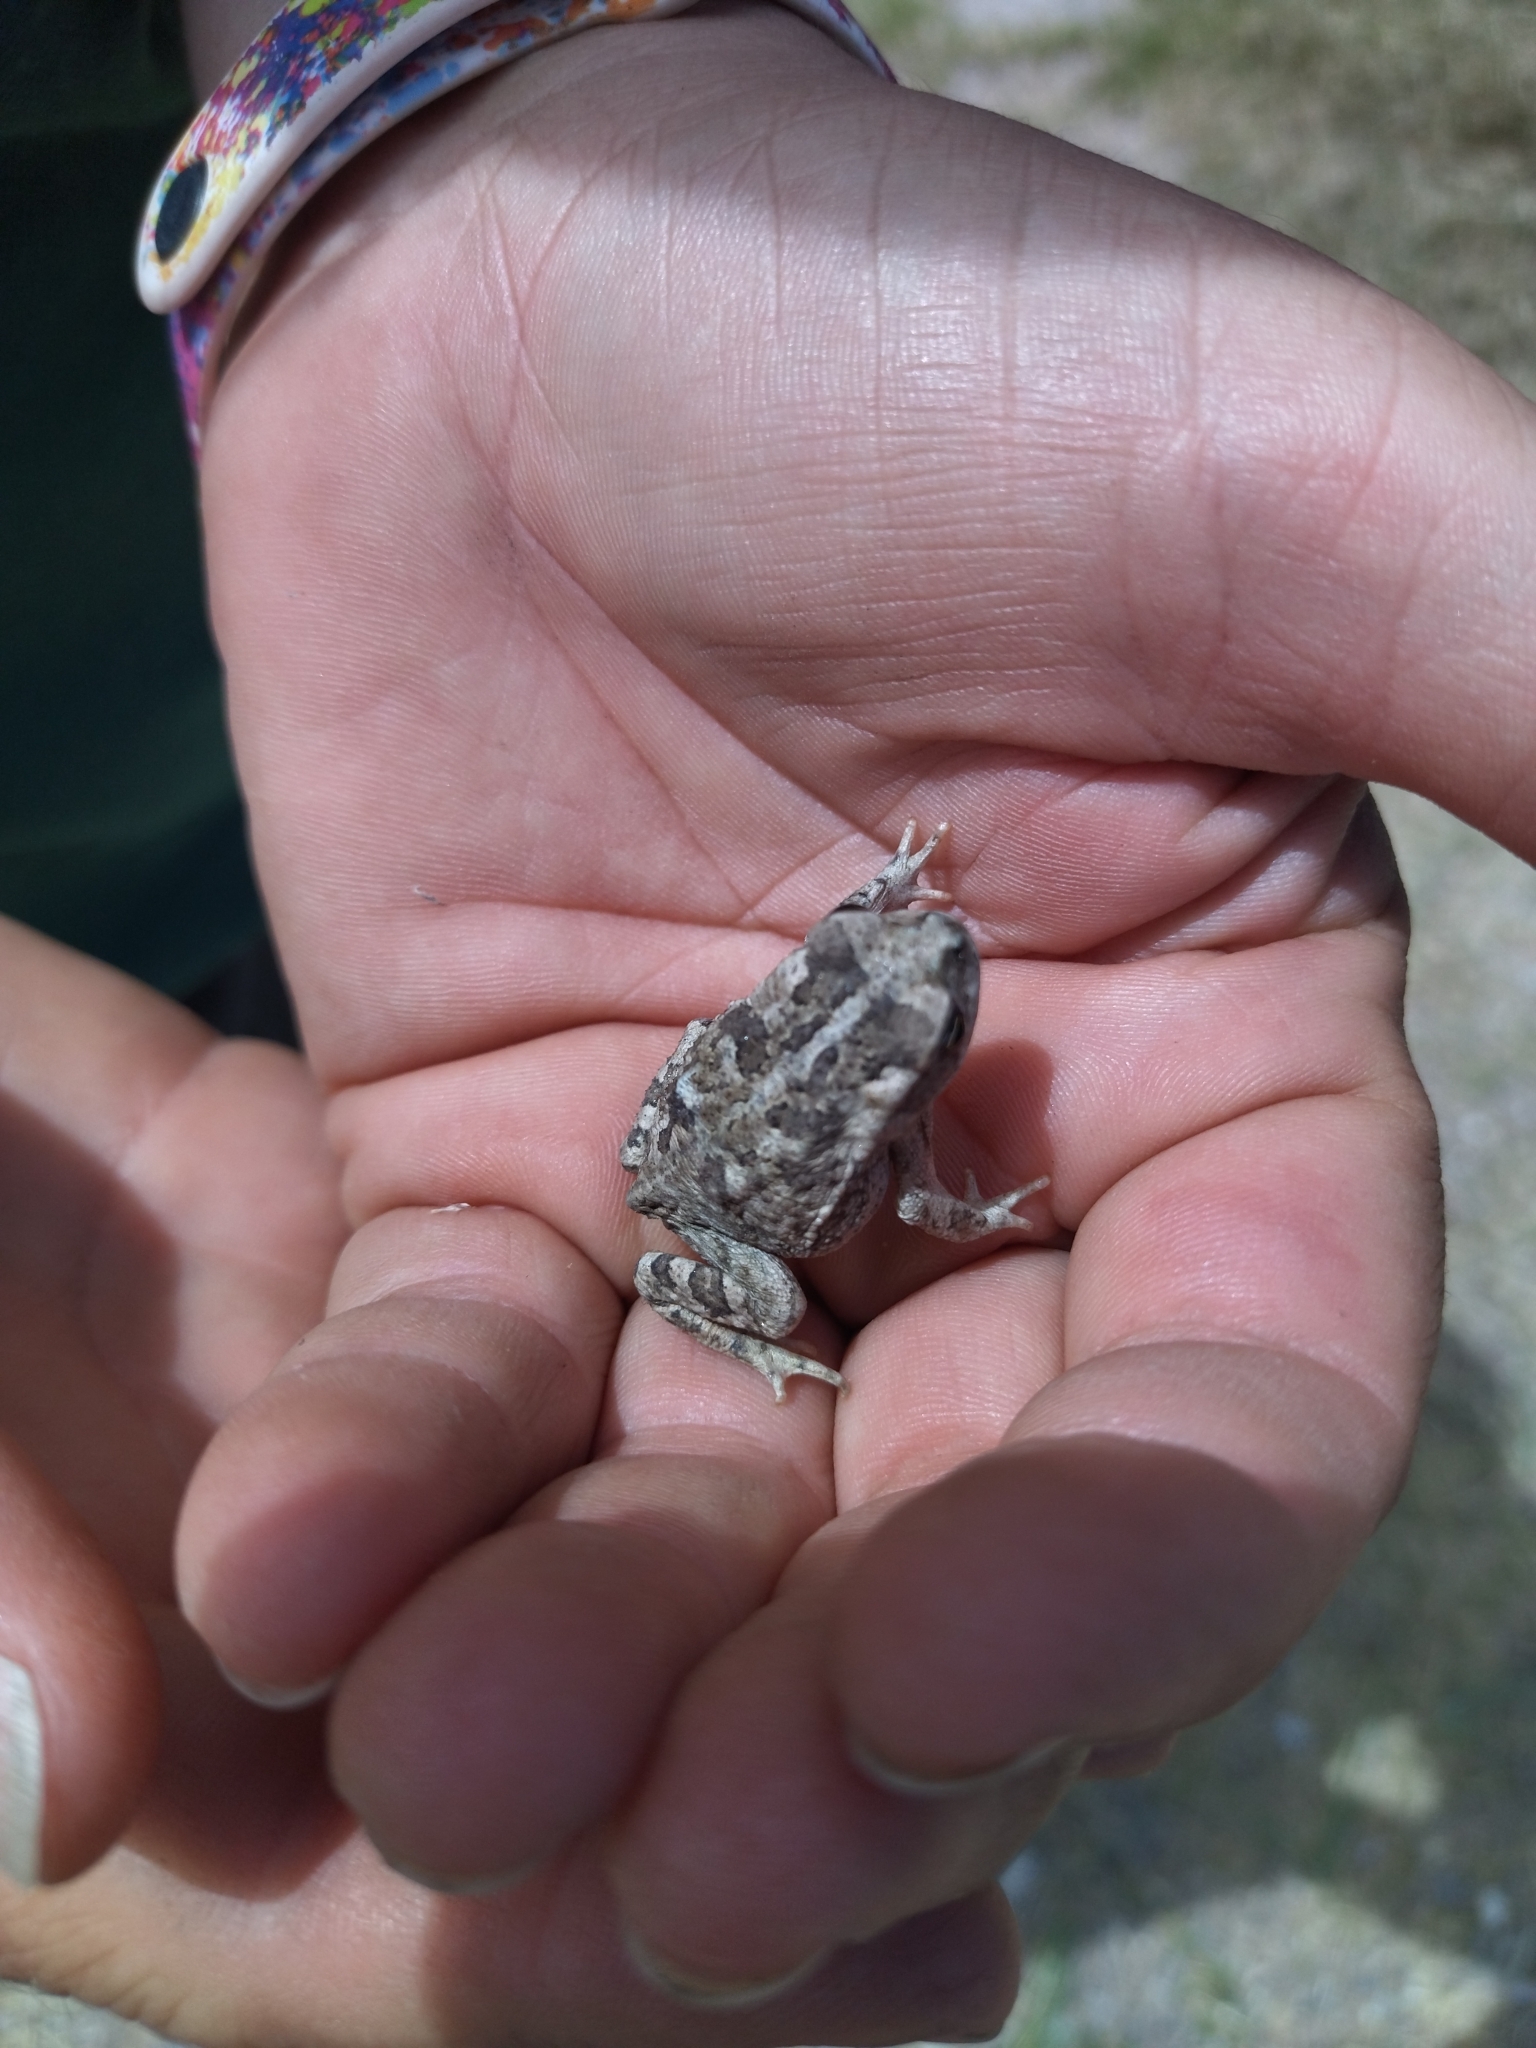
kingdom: Animalia
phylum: Chordata
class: Amphibia
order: Anura
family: Bufonidae
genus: Rhinella
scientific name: Rhinella arenarum
